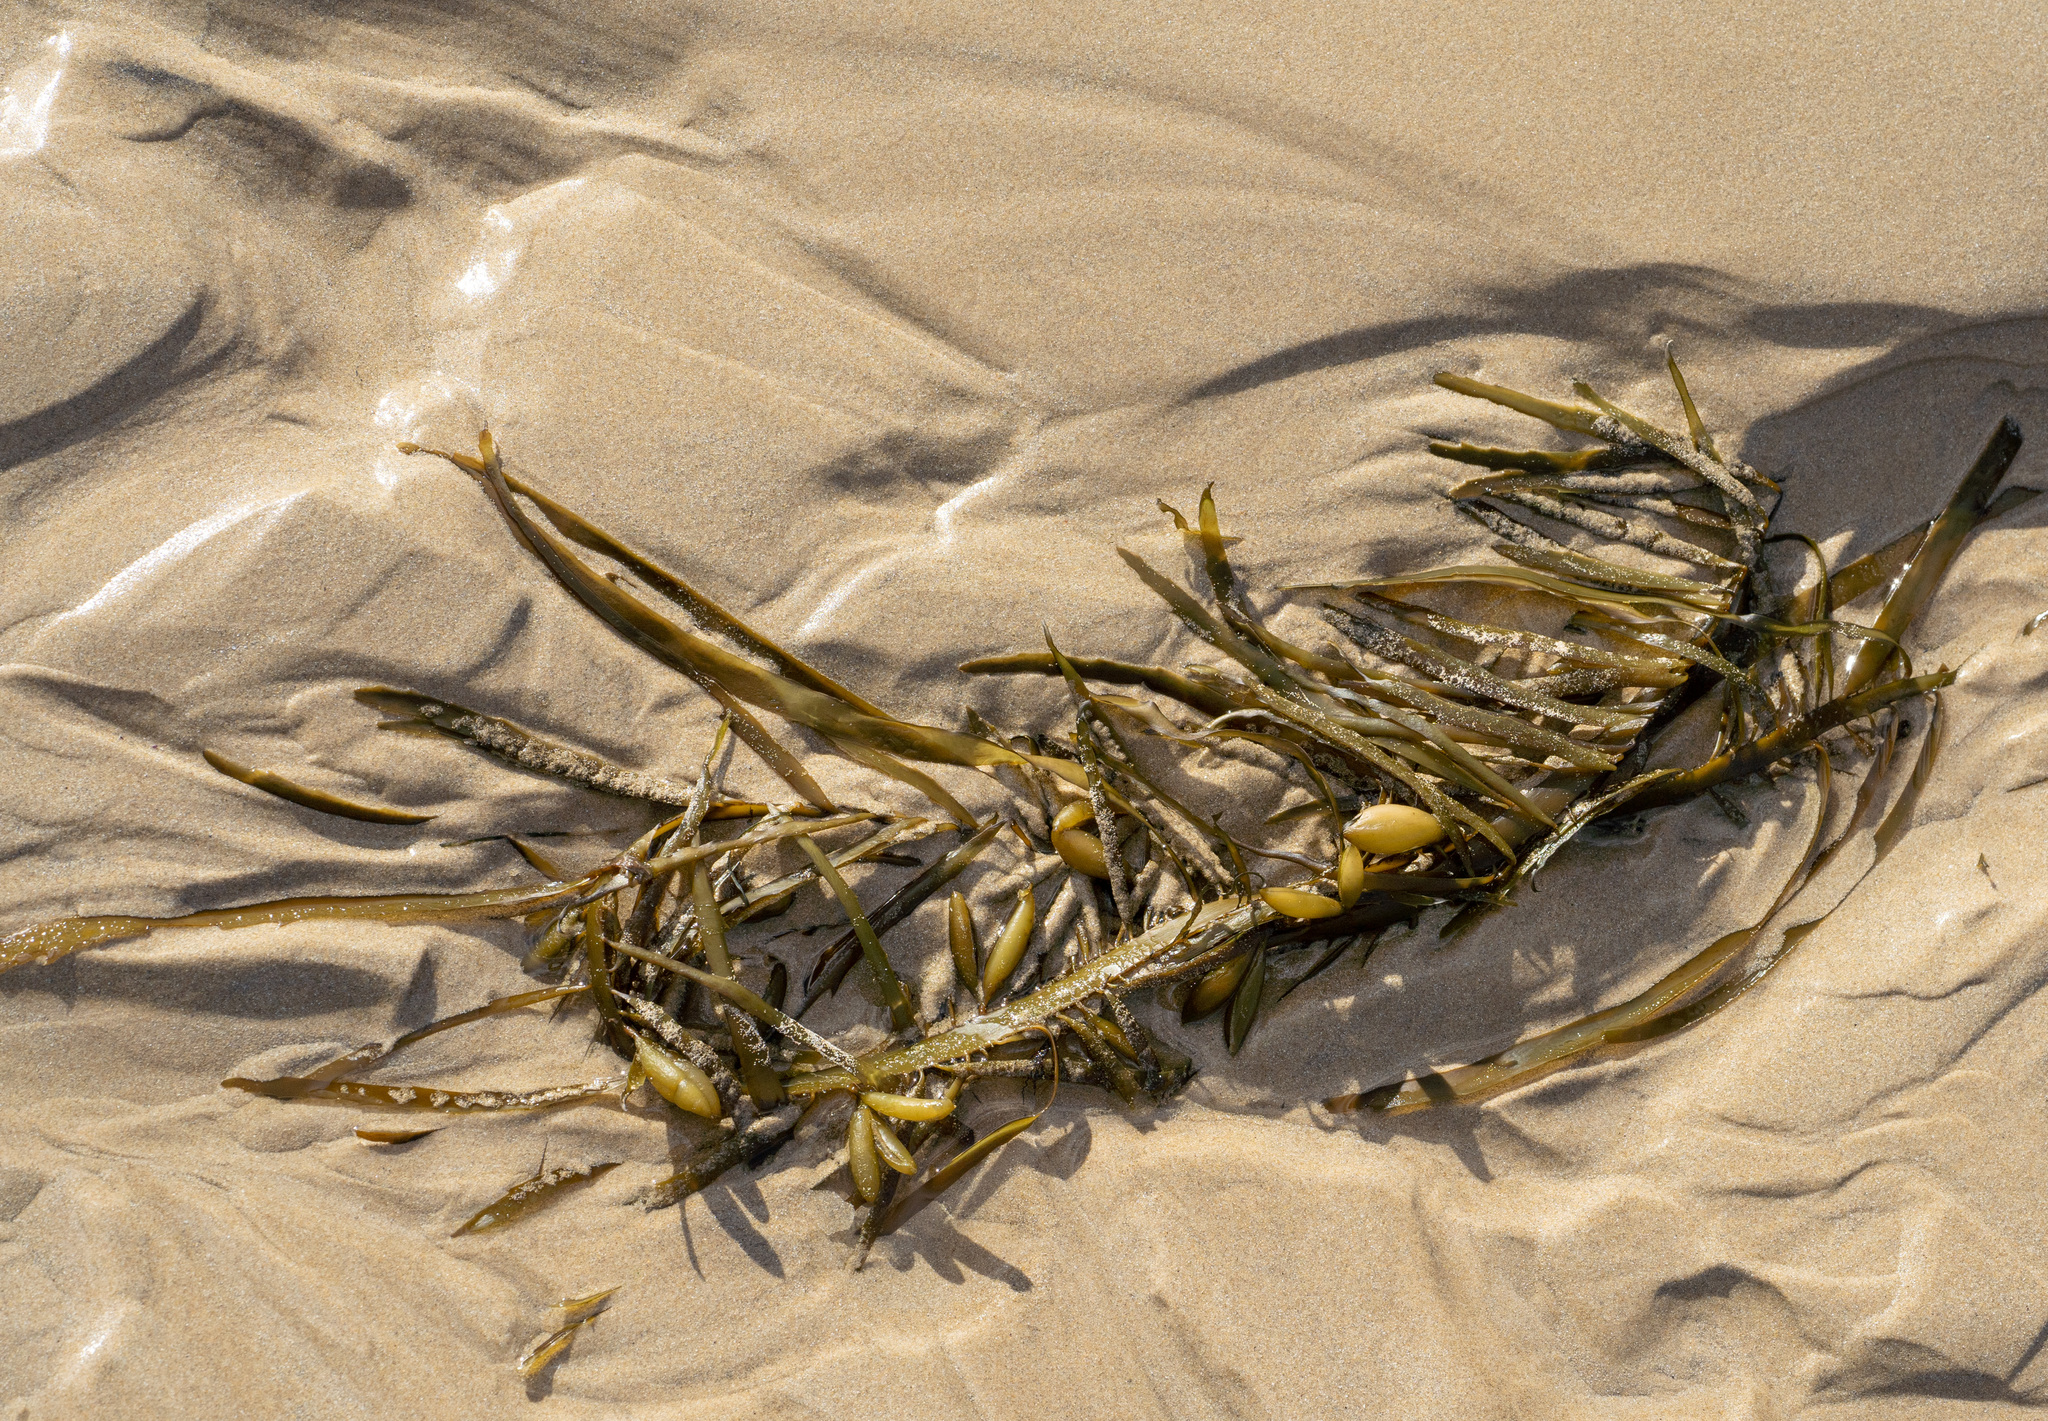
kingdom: Chromista
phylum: Ochrophyta
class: Phaeophyceae
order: Fucales
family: Seirococcaceae
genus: Phyllospora
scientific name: Phyllospora
